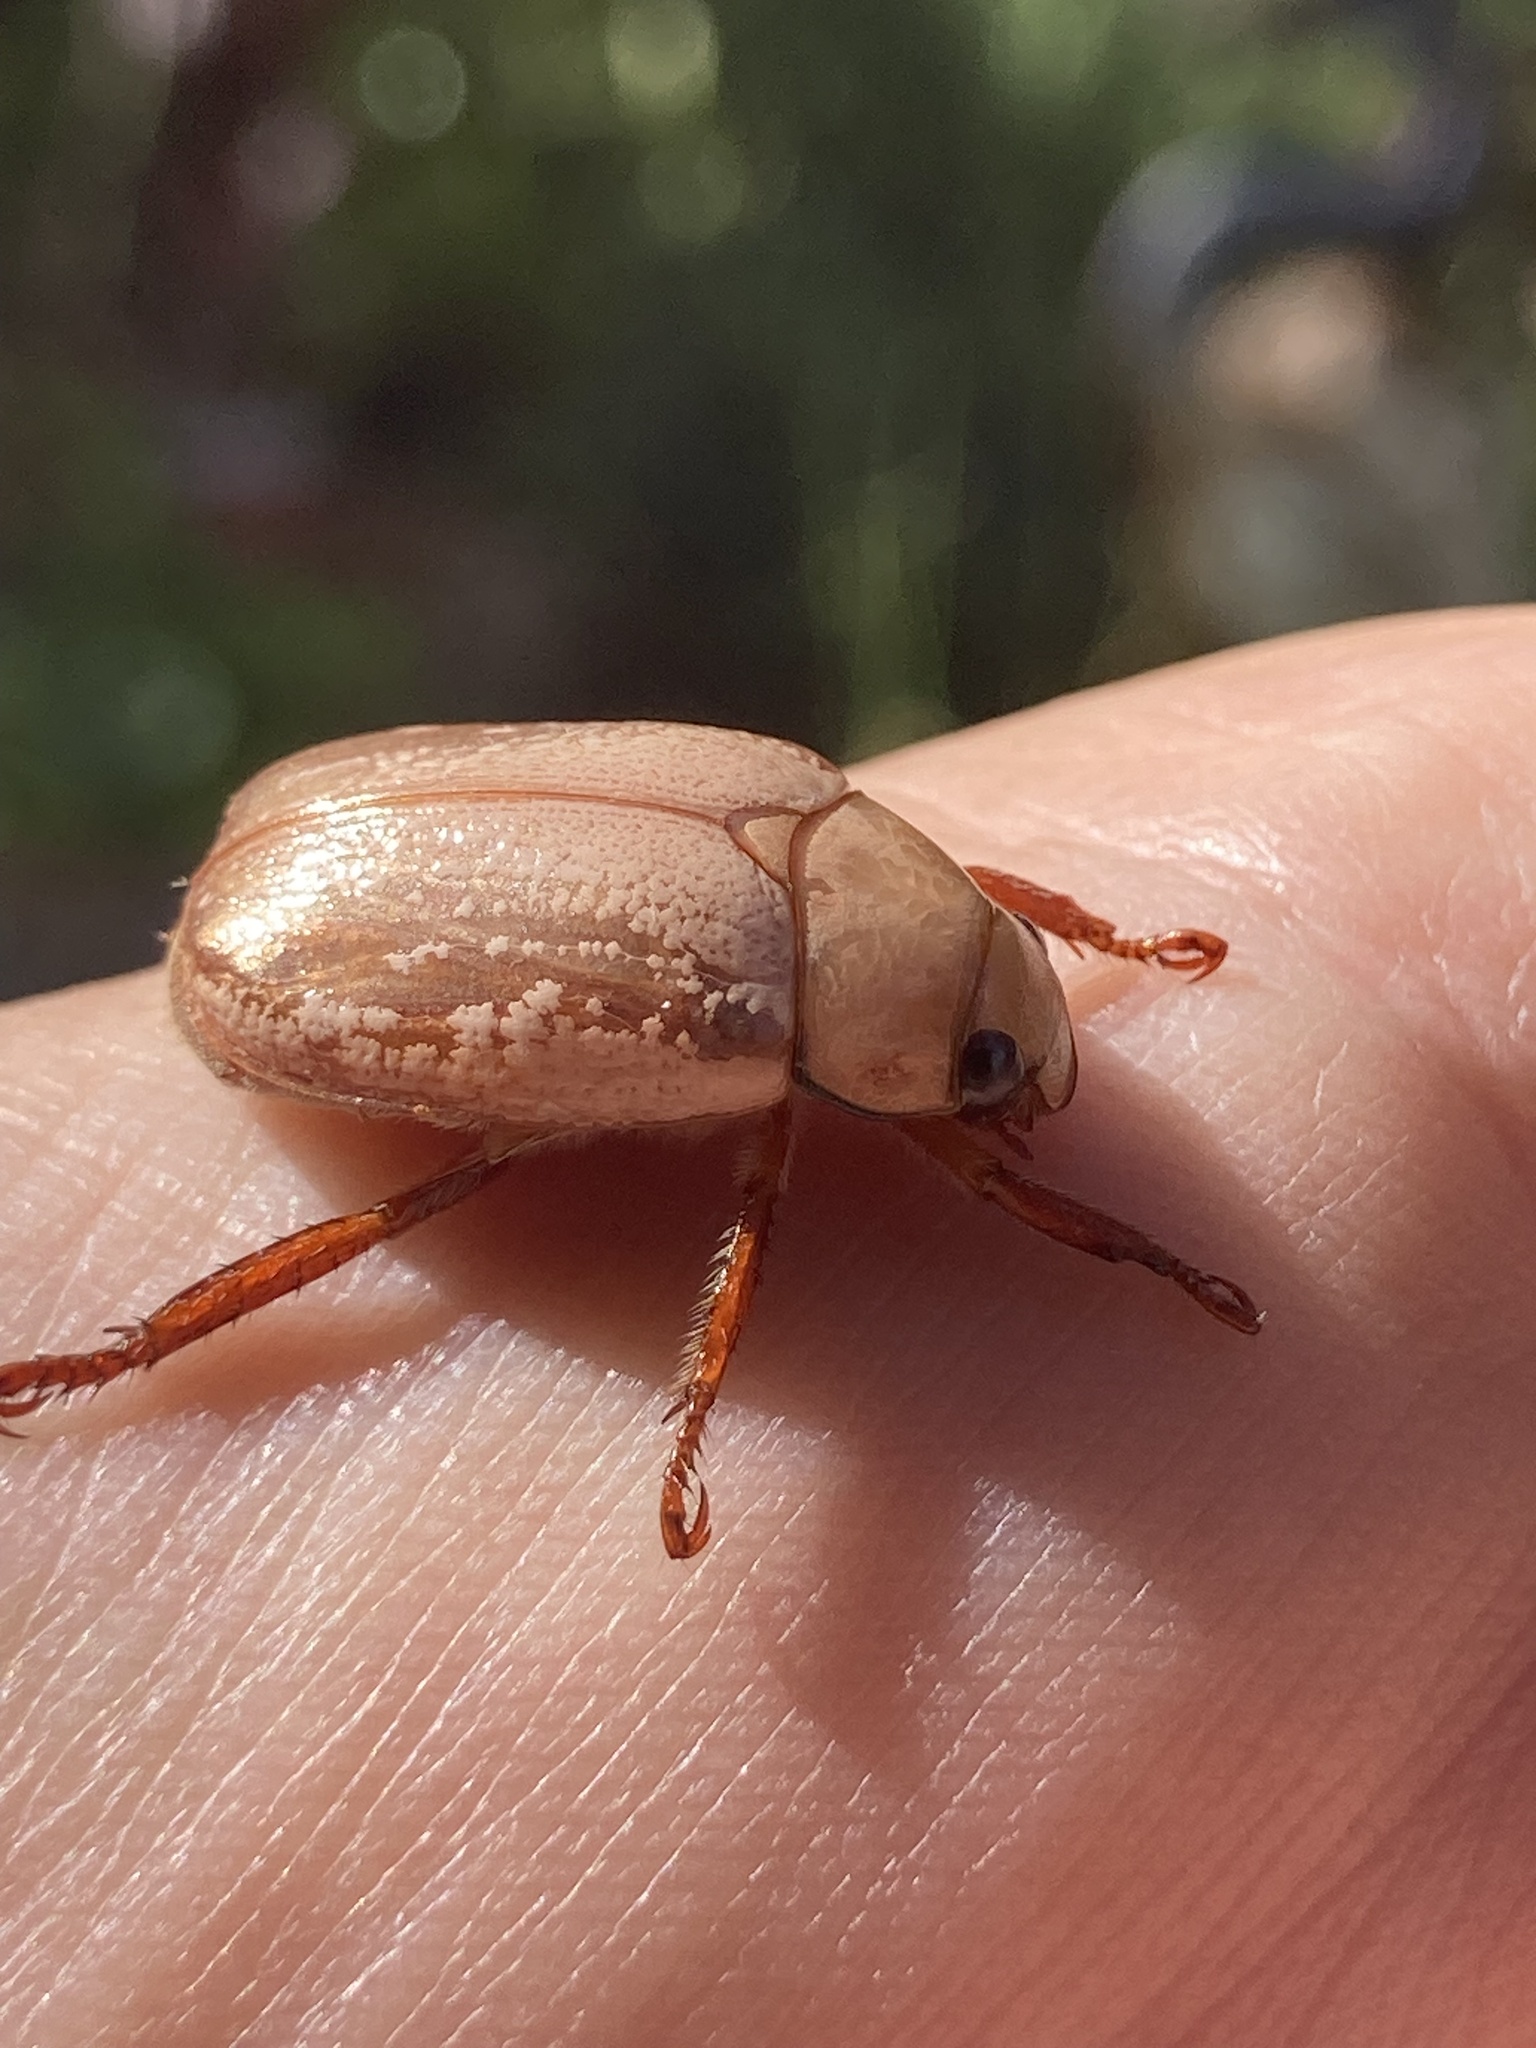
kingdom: Animalia
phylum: Arthropoda
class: Insecta
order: Coleoptera
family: Scarabaeidae
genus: Anoplognathus
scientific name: Anoplognathus concolor
